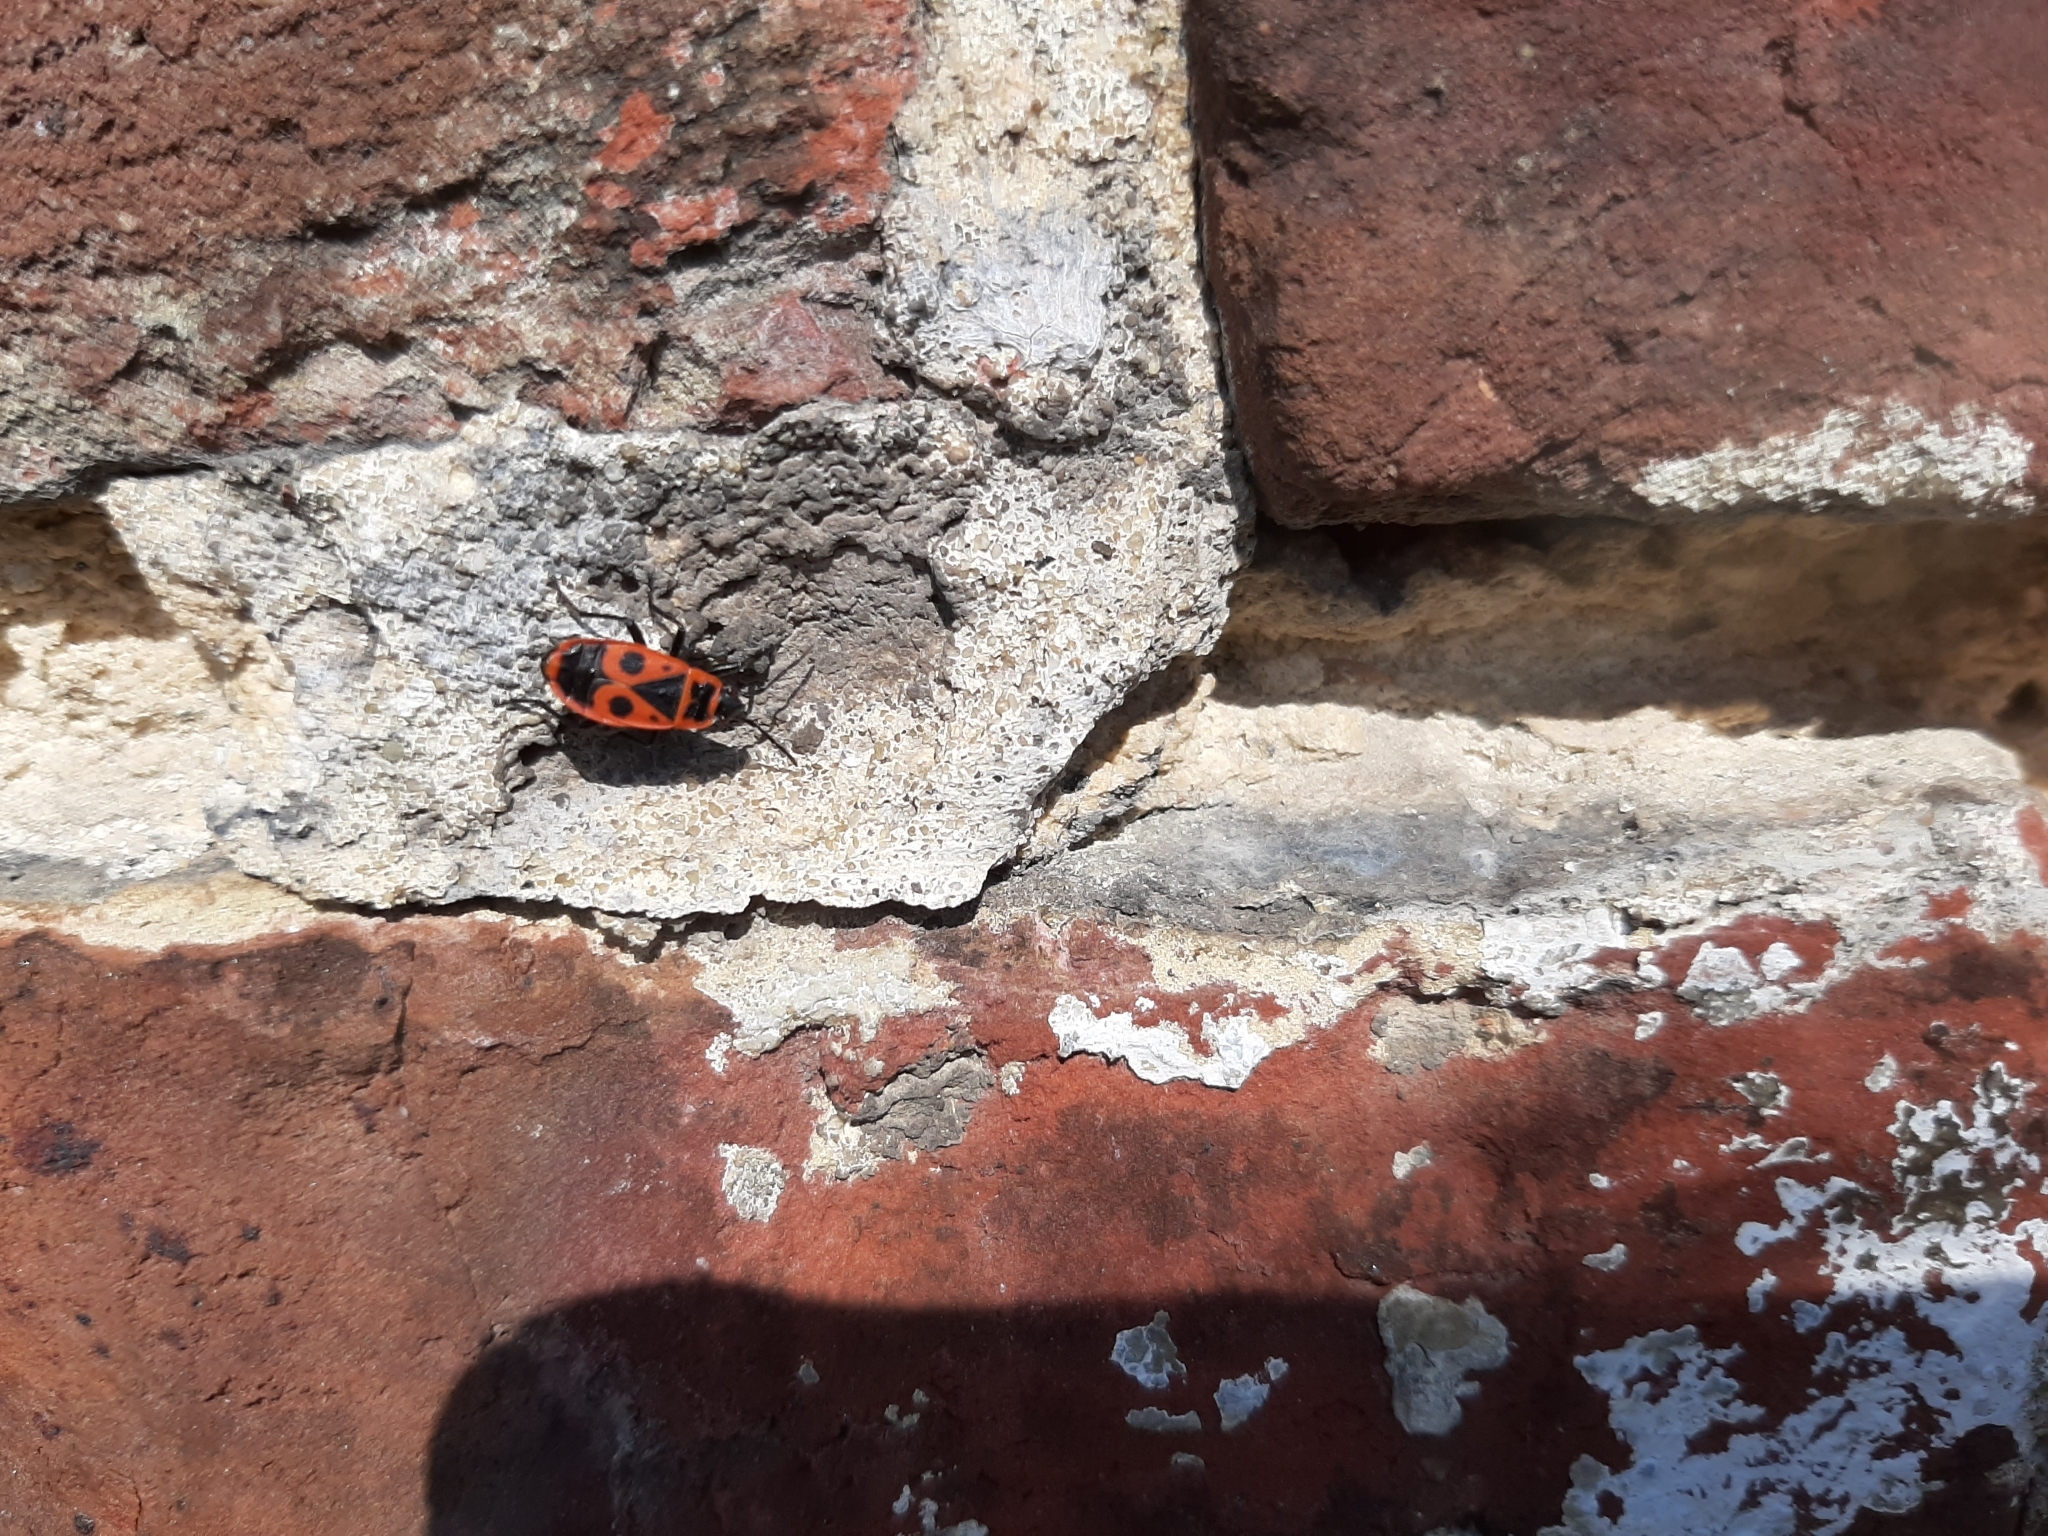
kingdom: Animalia
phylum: Arthropoda
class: Insecta
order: Hemiptera
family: Pyrrhocoridae
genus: Pyrrhocoris
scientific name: Pyrrhocoris apterus
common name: Firebug
